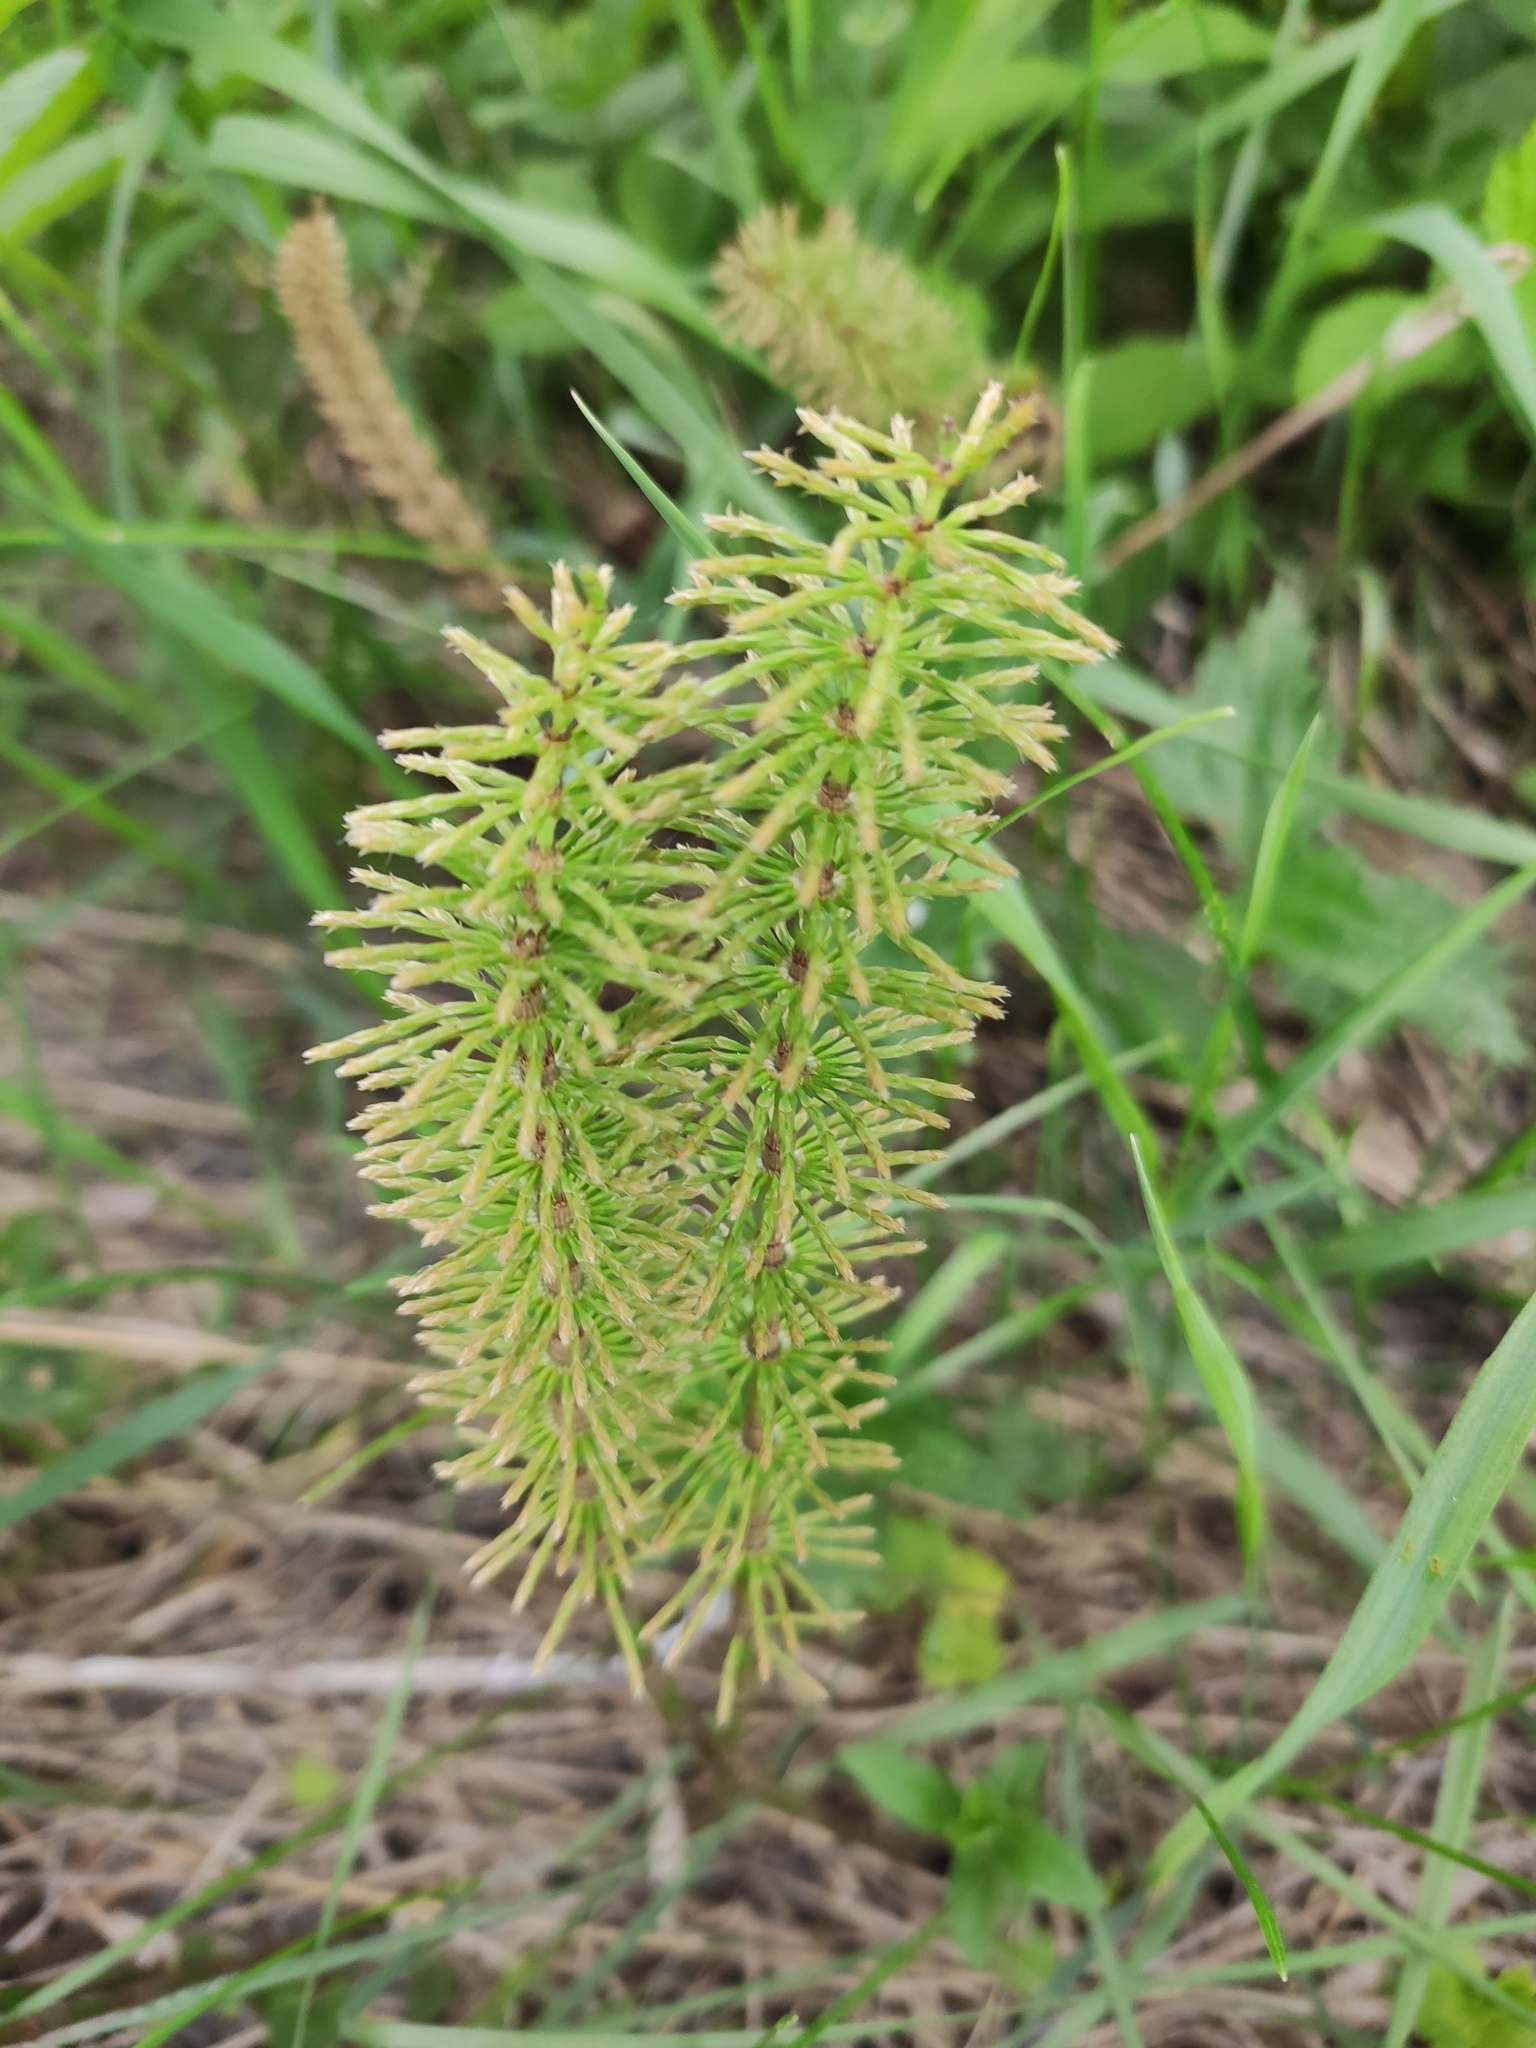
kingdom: Plantae
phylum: Tracheophyta
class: Polypodiopsida
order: Equisetales
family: Equisetaceae
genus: Equisetum
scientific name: Equisetum pratense
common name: Meadow horsetail
